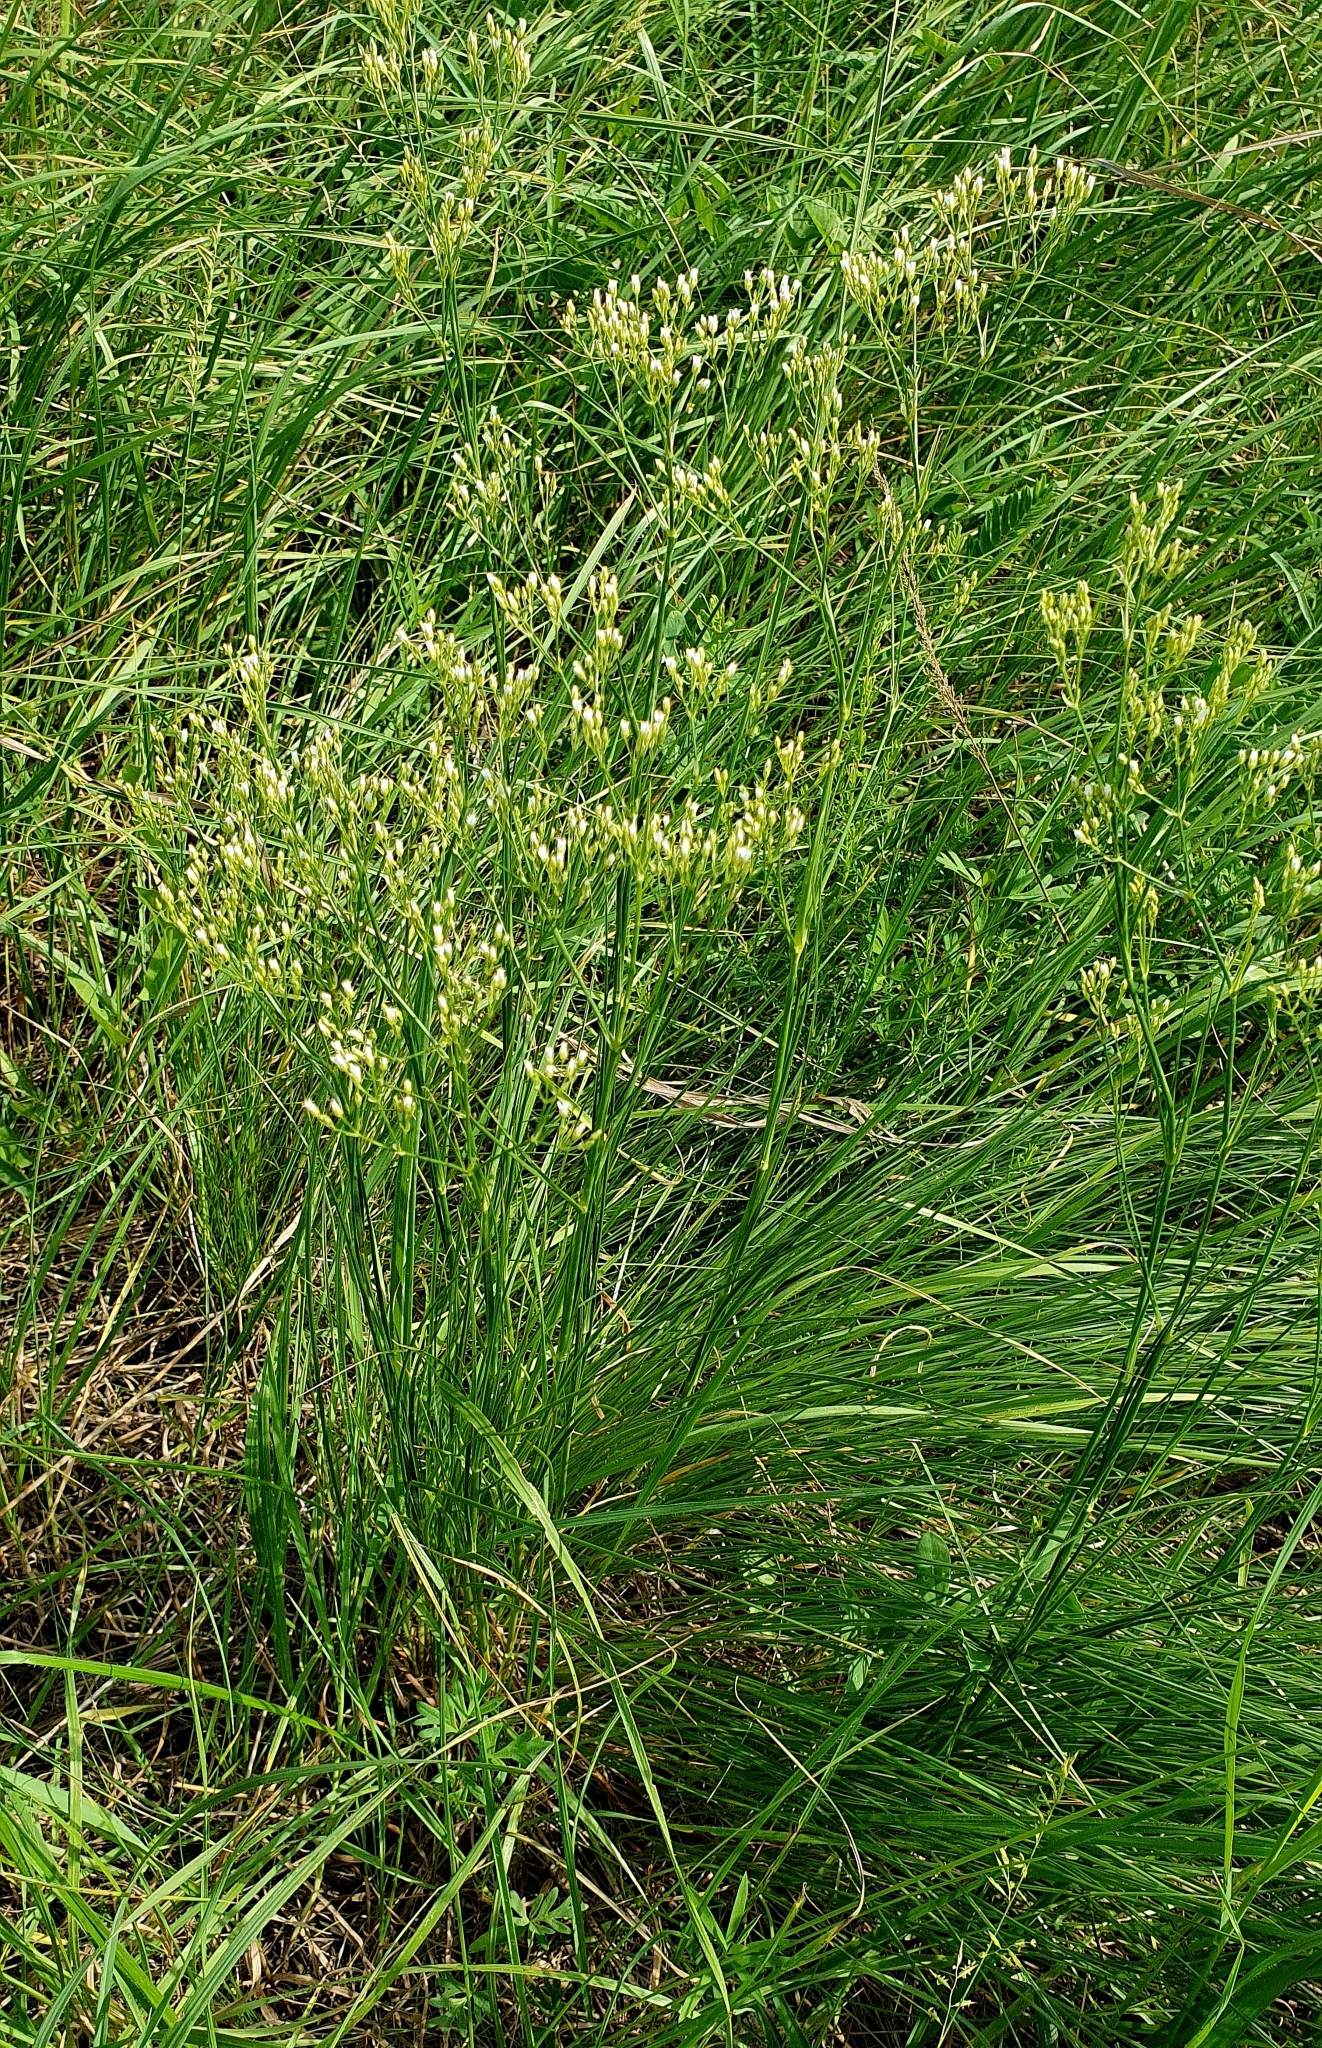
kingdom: Plantae
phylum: Tracheophyta
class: Magnoliopsida
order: Caryophyllales
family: Caryophyllaceae
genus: Eremogone
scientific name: Eremogone longifolia
